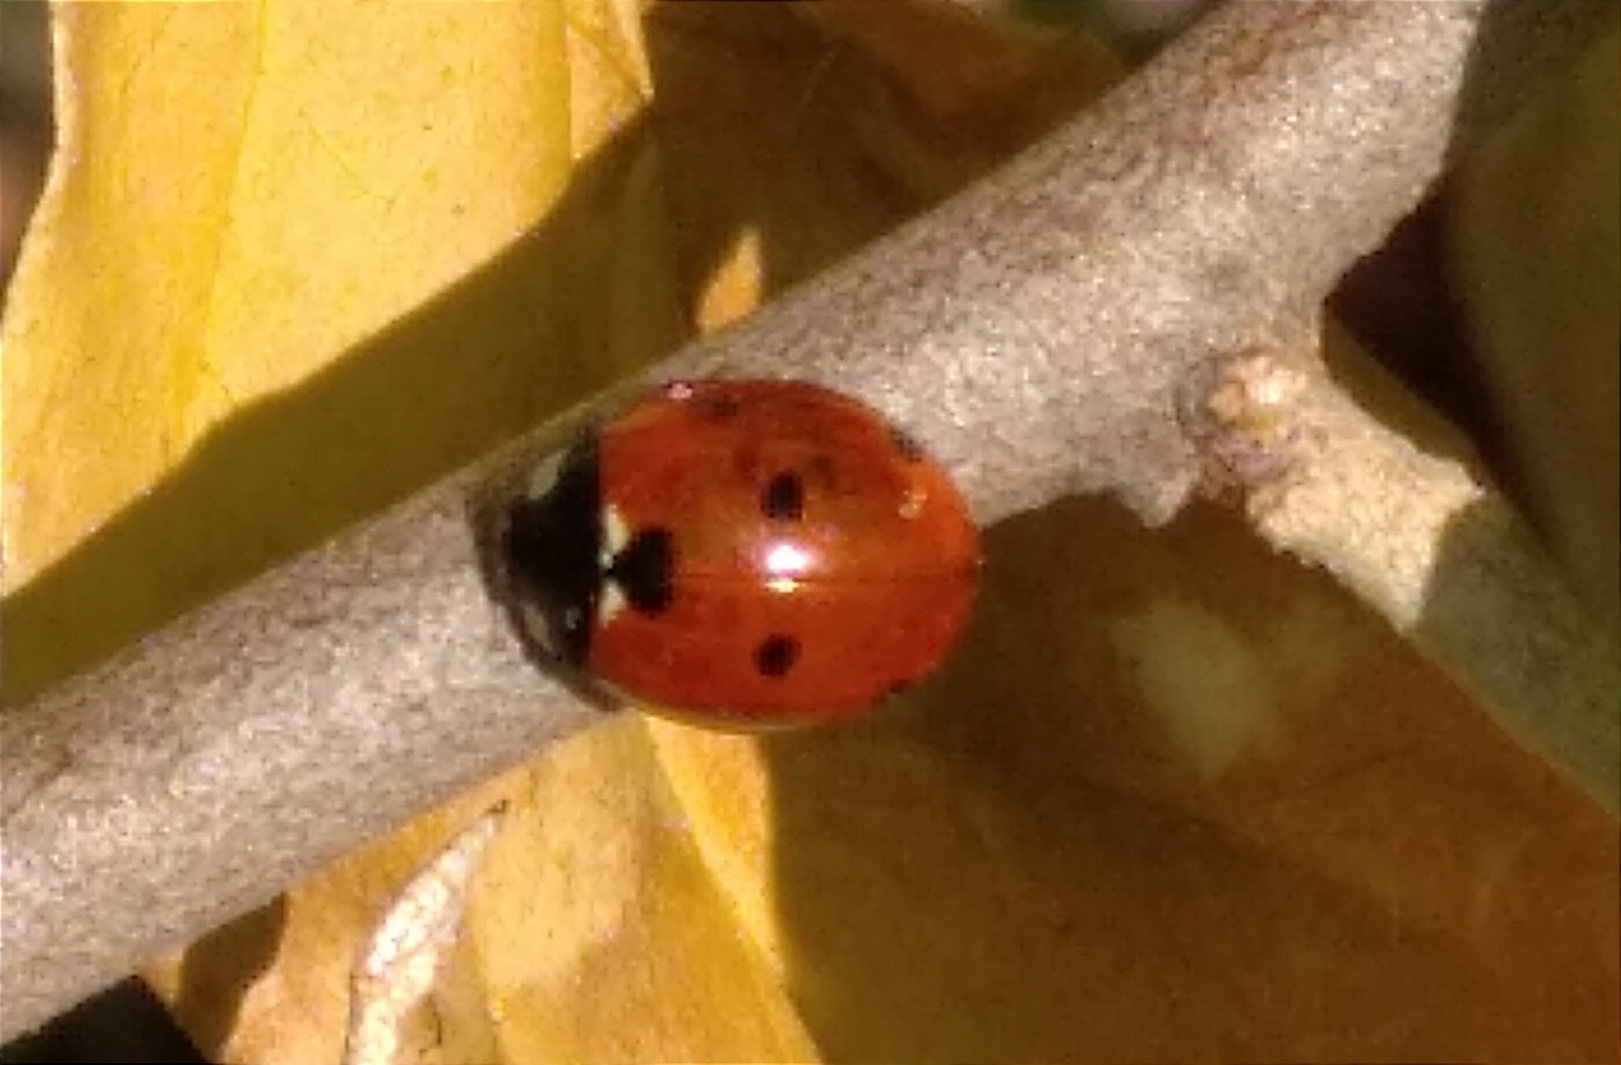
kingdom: Animalia
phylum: Arthropoda
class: Insecta
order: Coleoptera
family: Coccinellidae
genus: Coccinella
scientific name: Coccinella septempunctata
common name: Sevenspotted lady beetle
